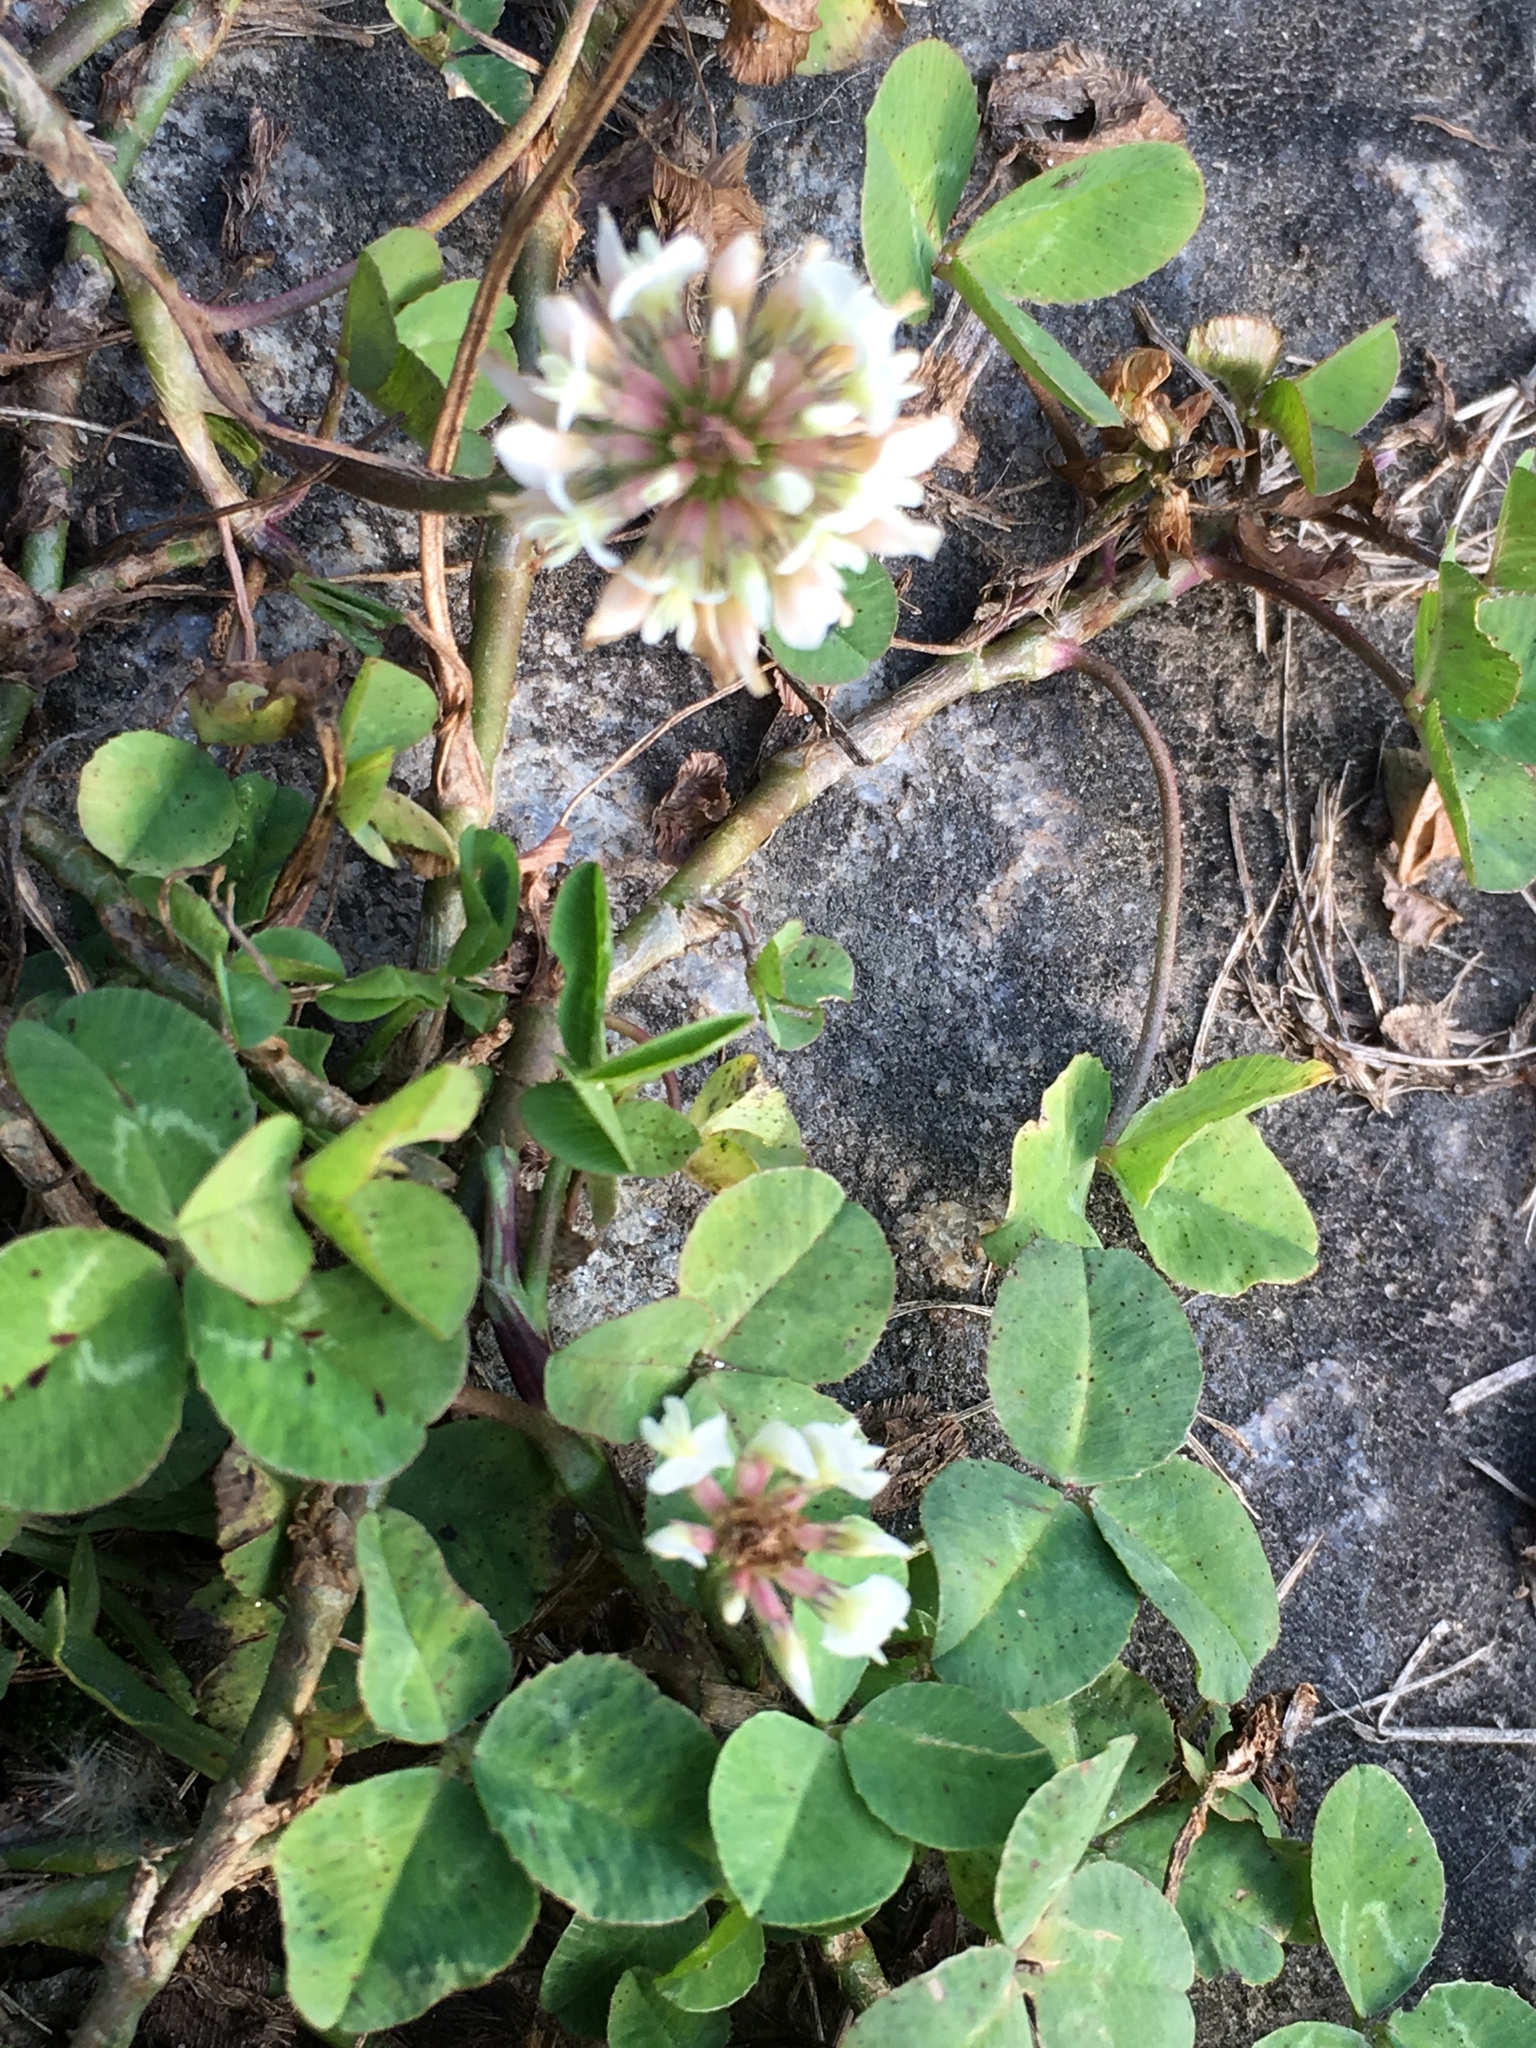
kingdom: Plantae
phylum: Tracheophyta
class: Magnoliopsida
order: Fabales
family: Fabaceae
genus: Trifolium
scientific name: Trifolium repens
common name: White clover
